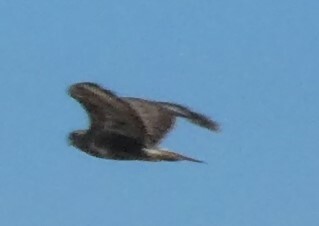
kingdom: Animalia
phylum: Chordata
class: Aves
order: Accipitriformes
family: Accipitridae
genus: Buteo
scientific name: Buteo buteo
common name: Common buzzard
